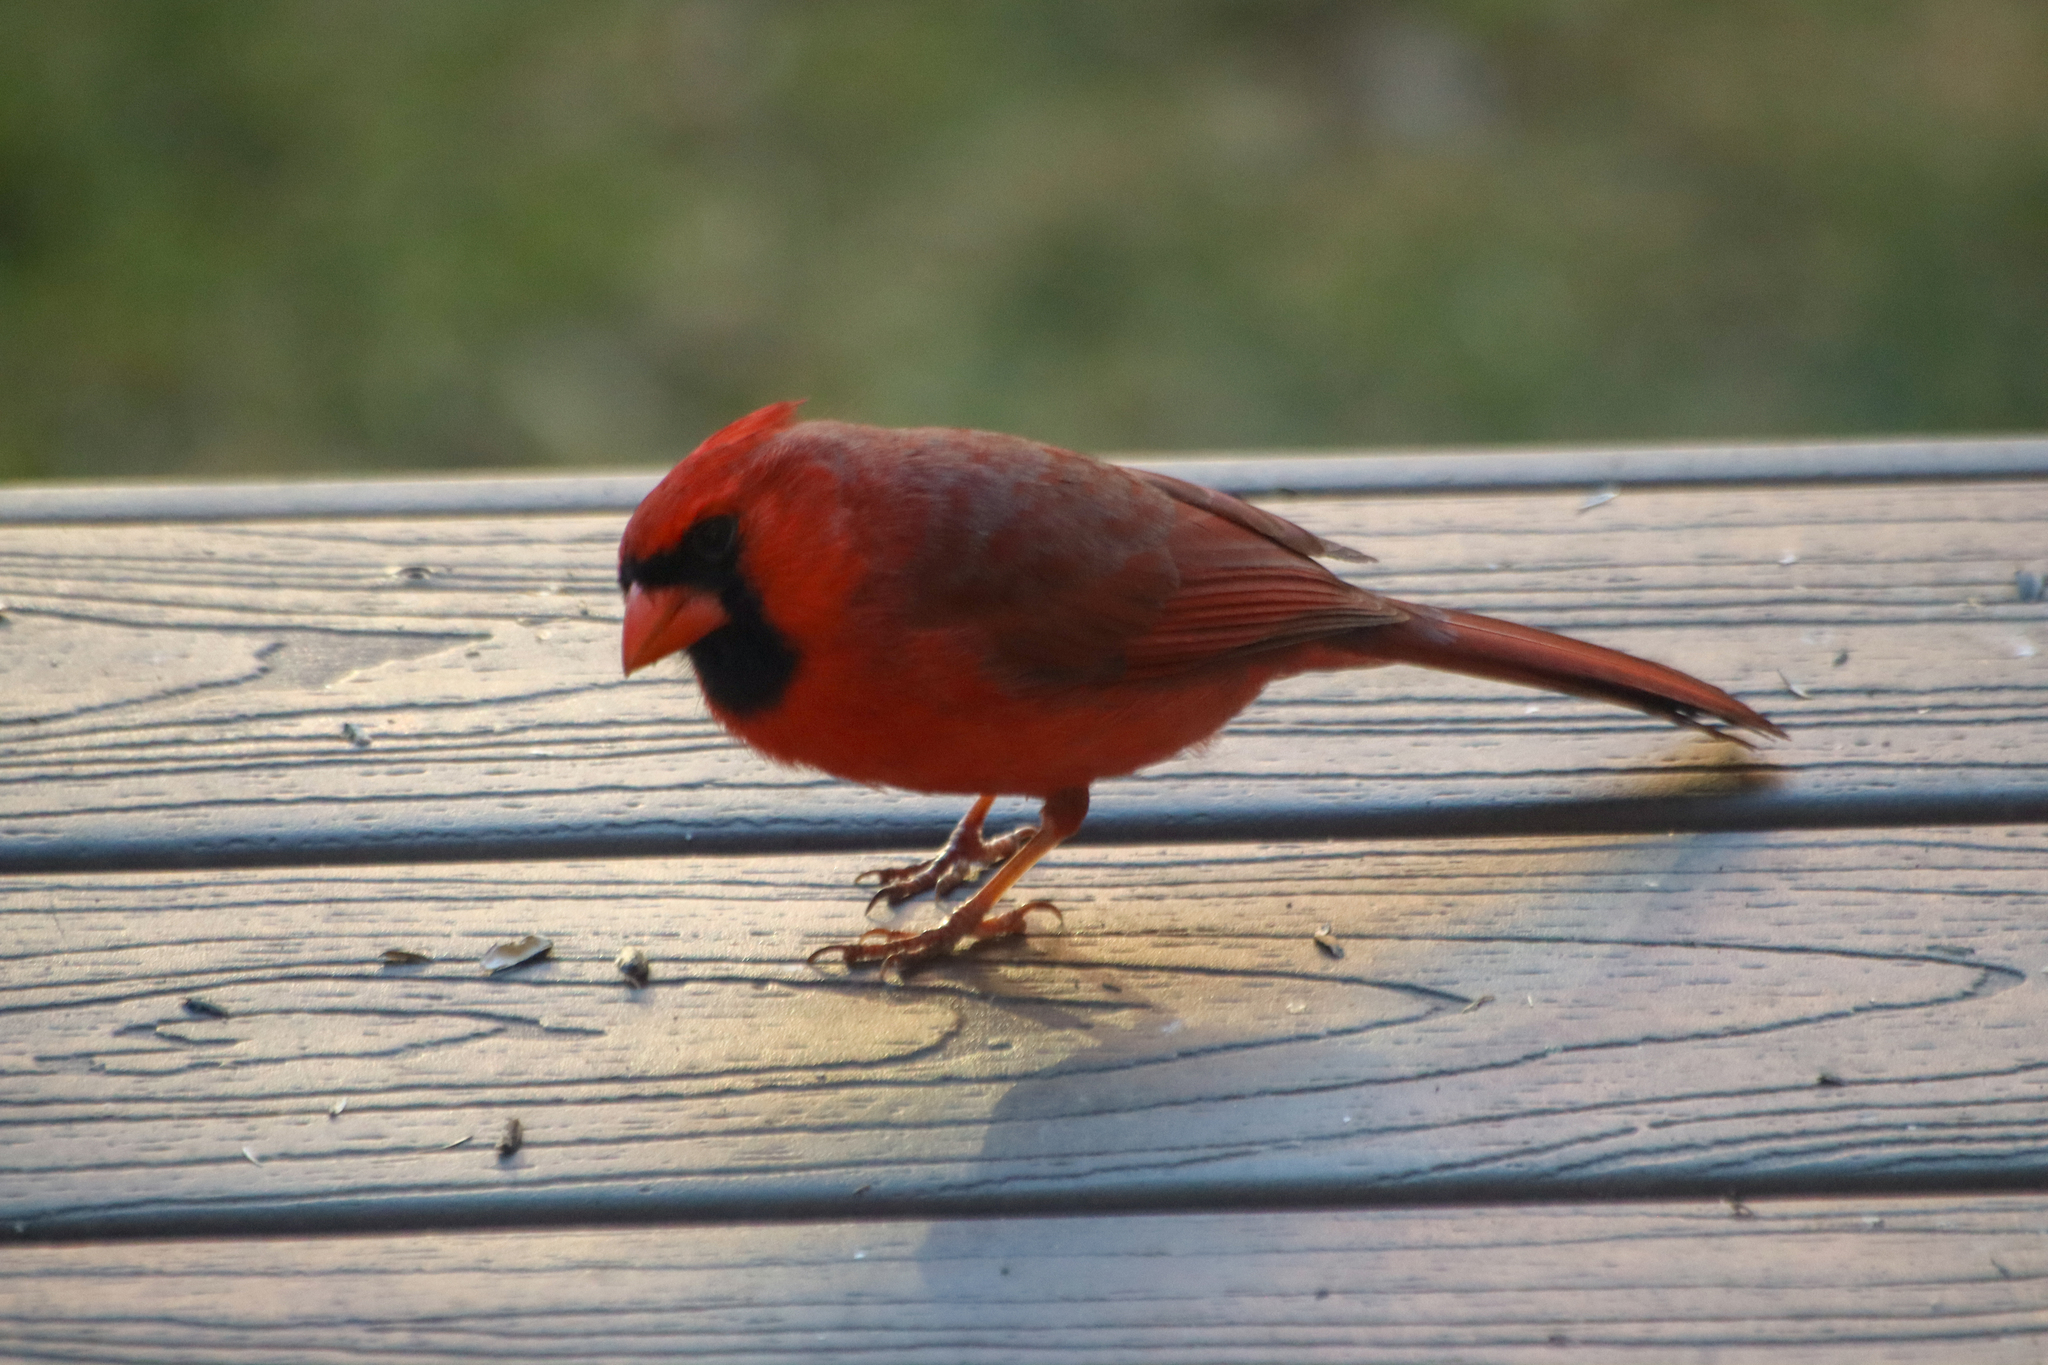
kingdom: Animalia
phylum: Chordata
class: Aves
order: Passeriformes
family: Cardinalidae
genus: Cardinalis
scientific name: Cardinalis cardinalis
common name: Northern cardinal
